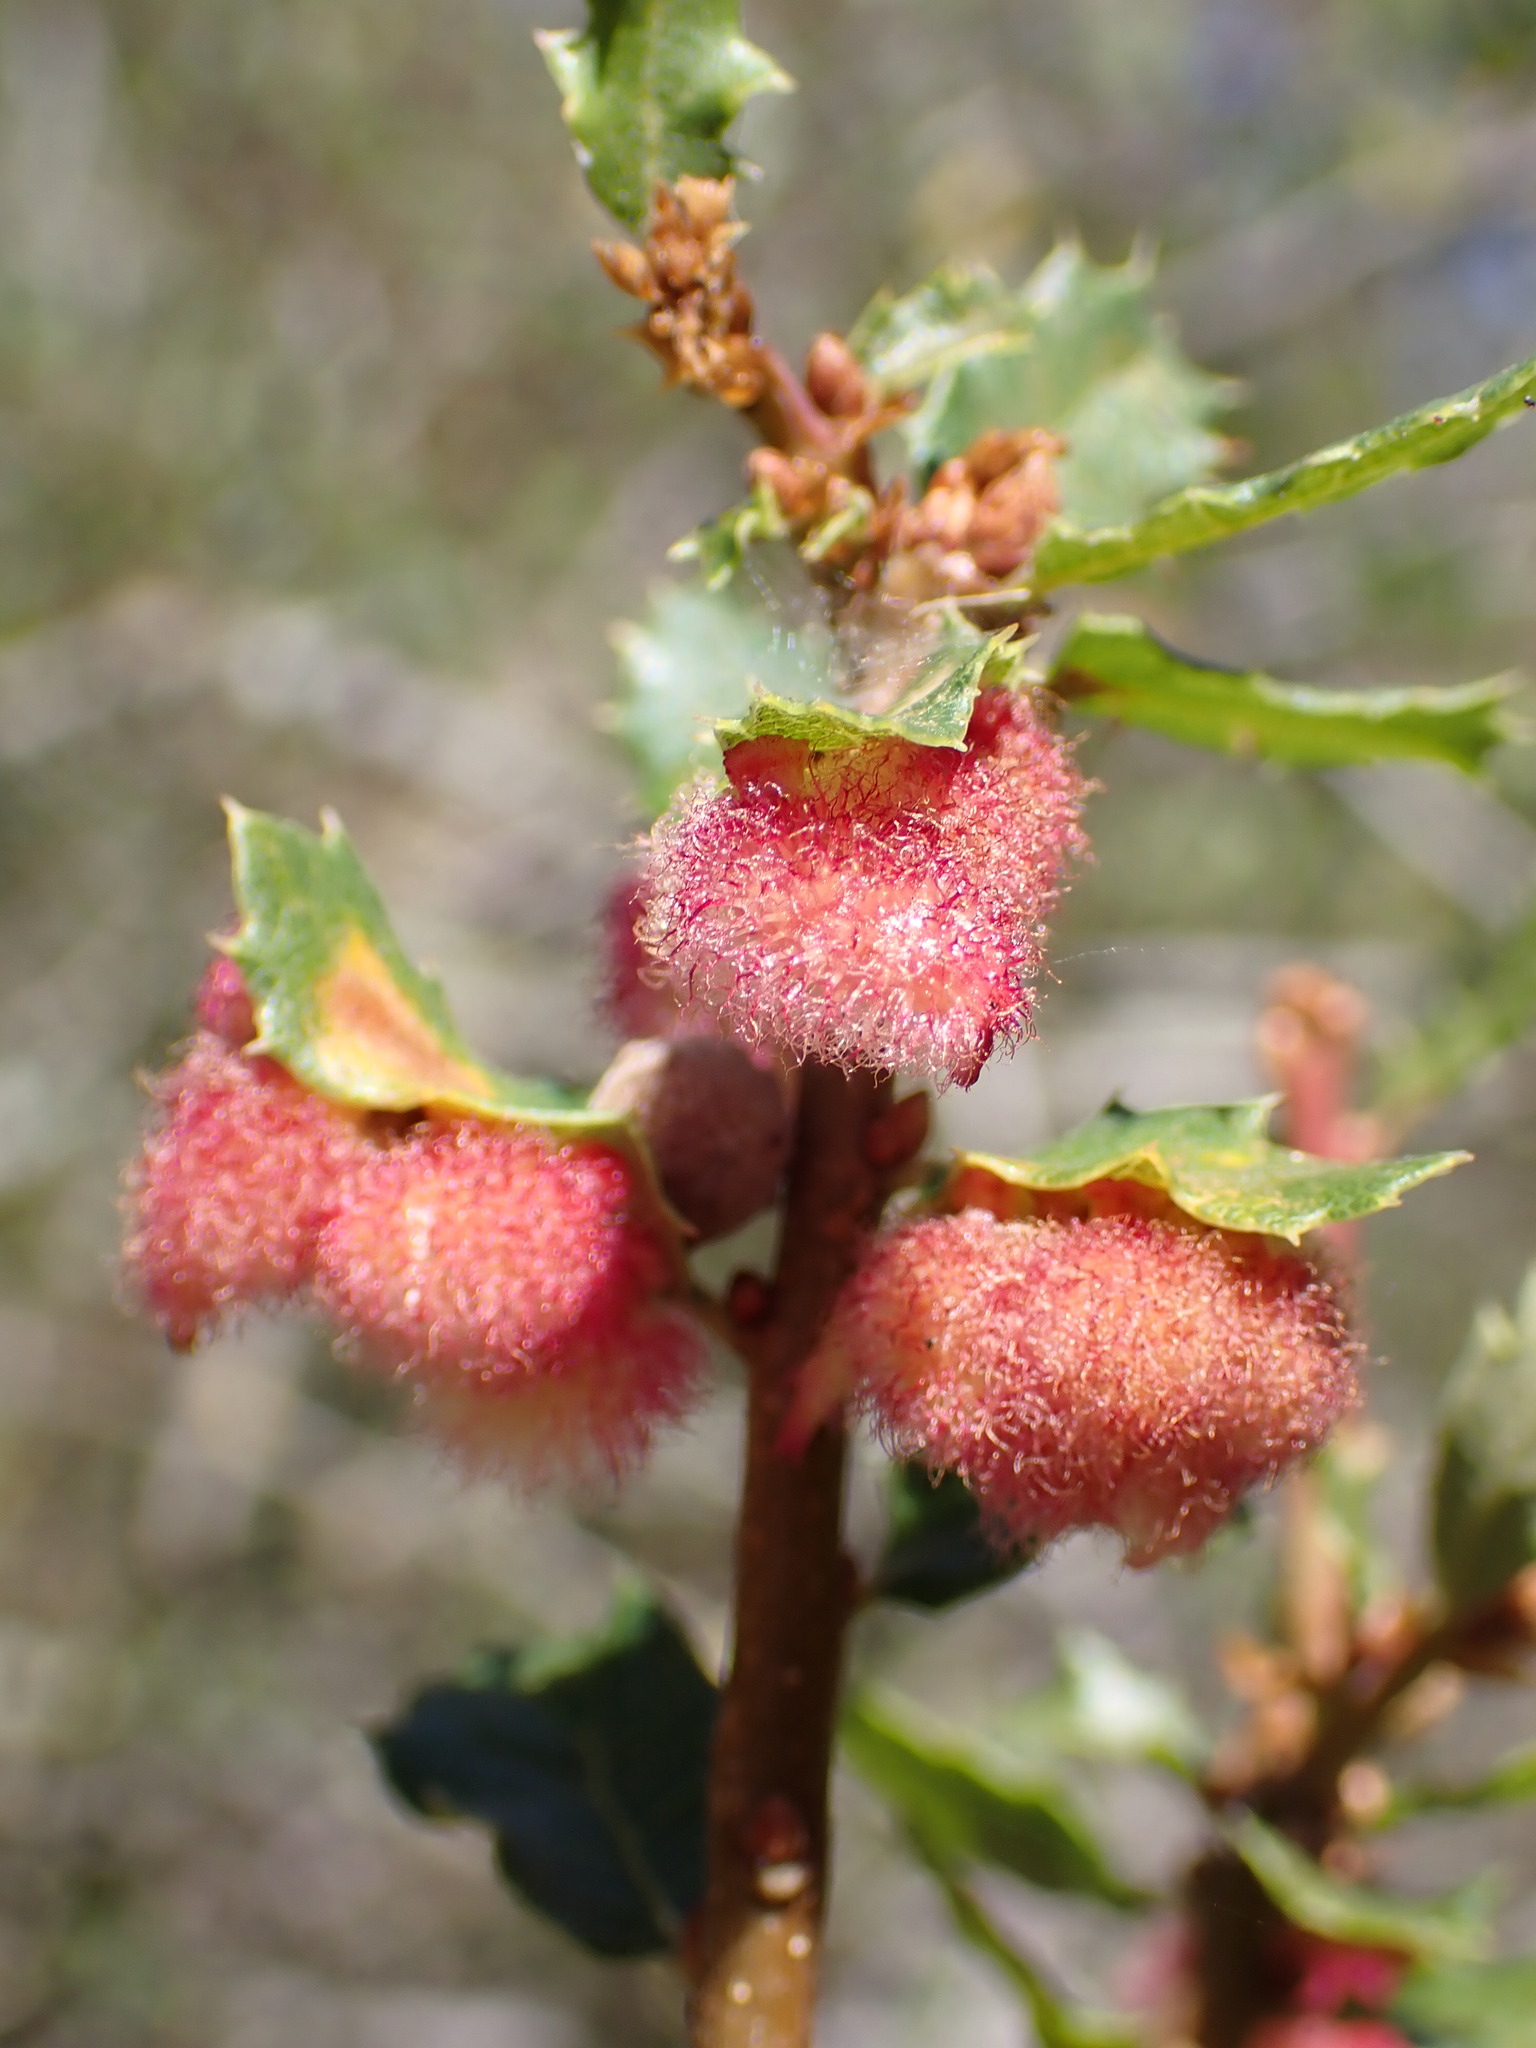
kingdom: Animalia
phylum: Arthropoda
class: Insecta
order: Hymenoptera
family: Cynipidae
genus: Andricus
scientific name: Andricus
